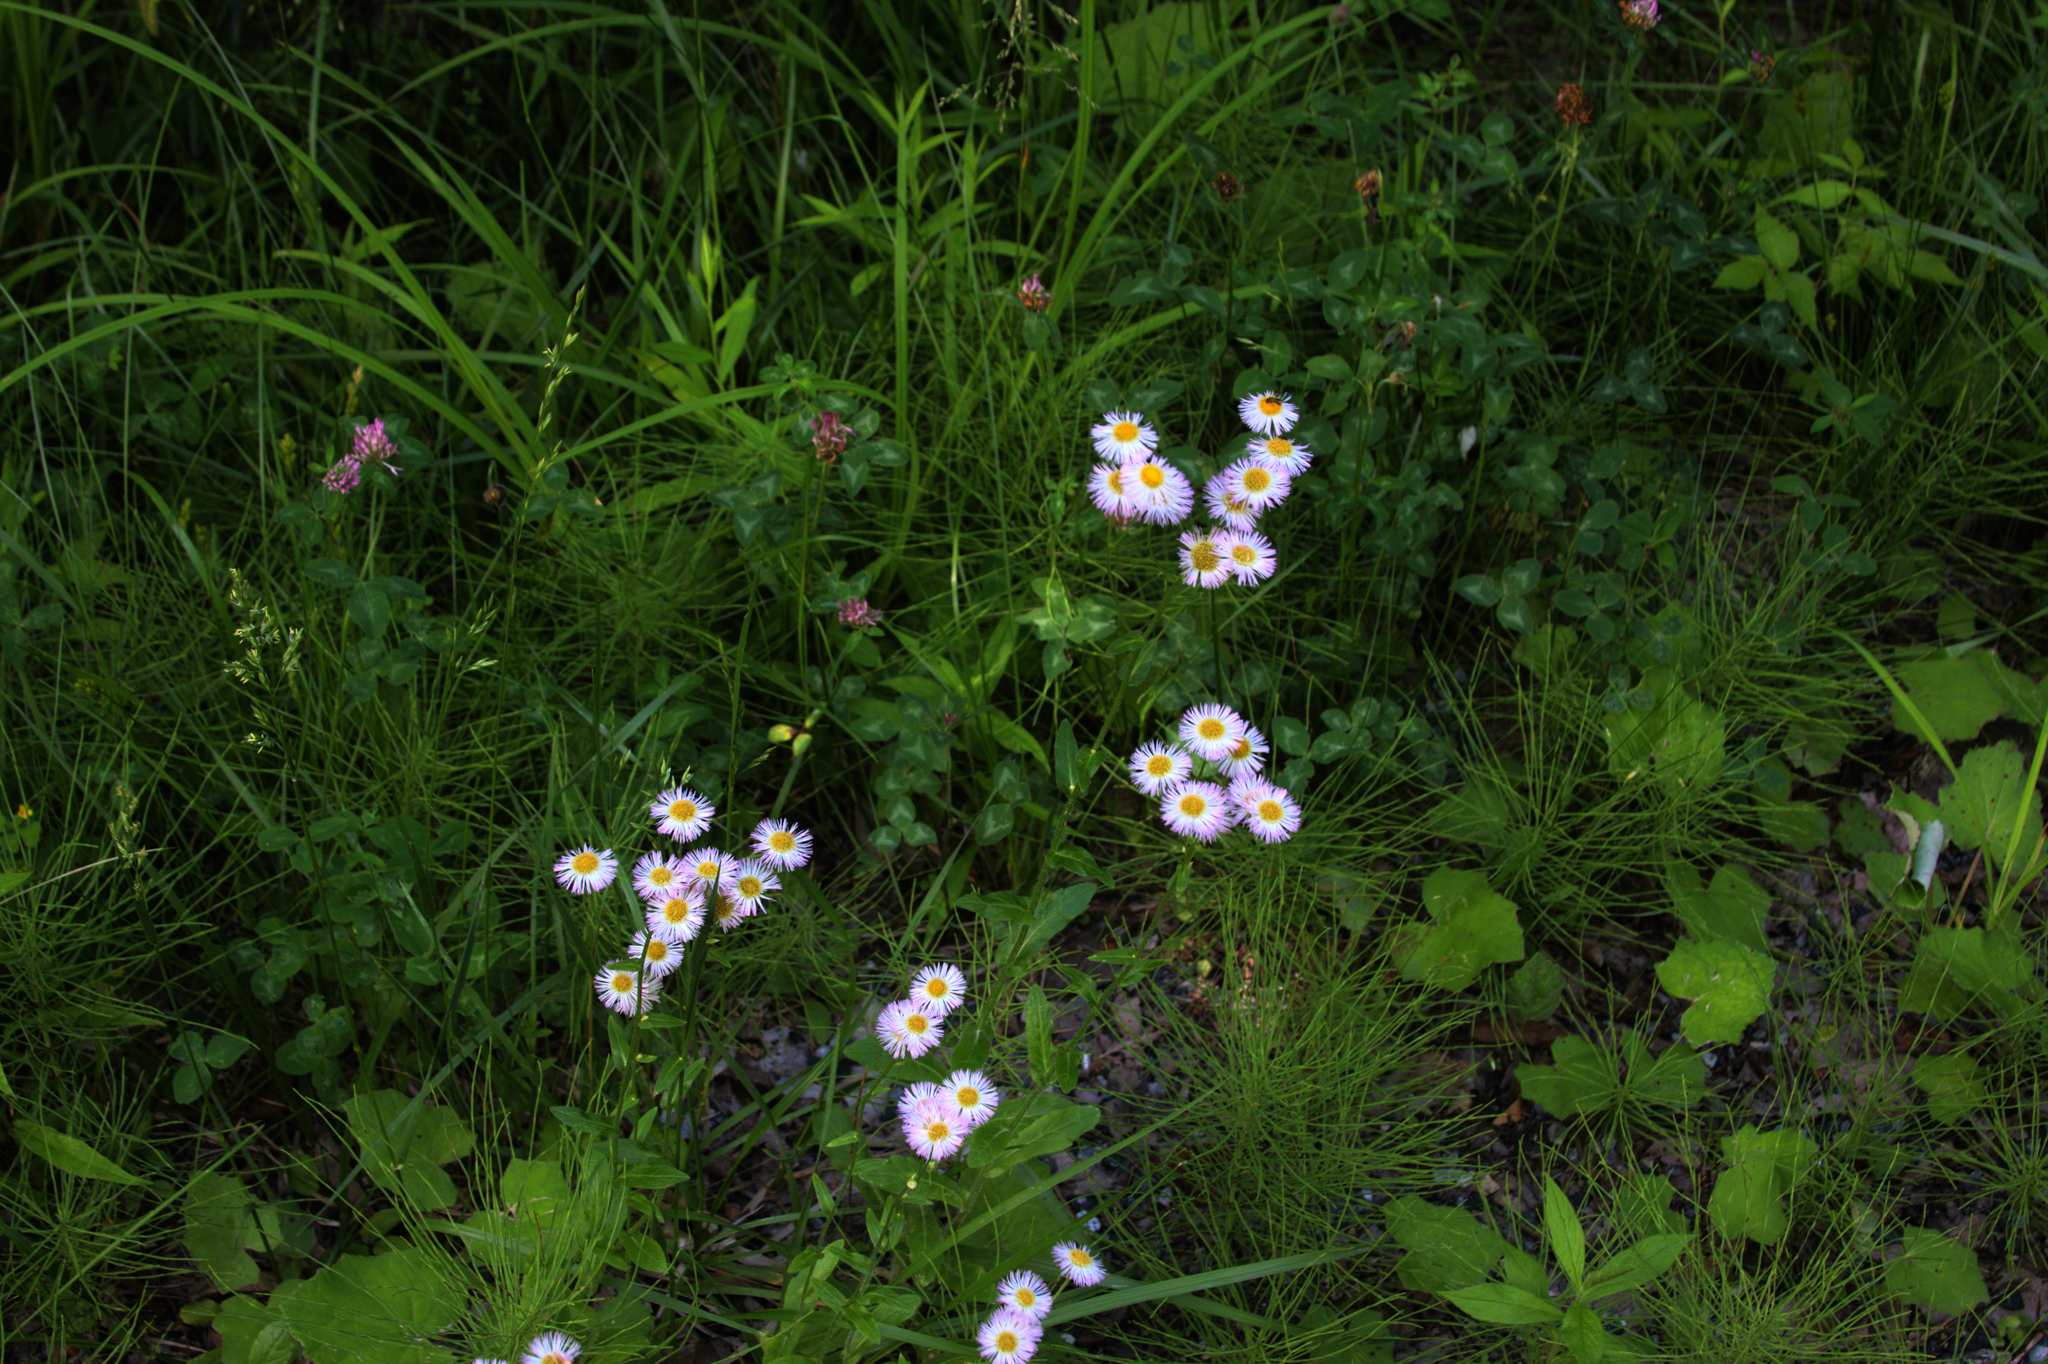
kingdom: Plantae
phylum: Tracheophyta
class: Magnoliopsida
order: Asterales
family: Asteraceae
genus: Erigeron
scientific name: Erigeron philadelphicus
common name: Robin's-plantain
